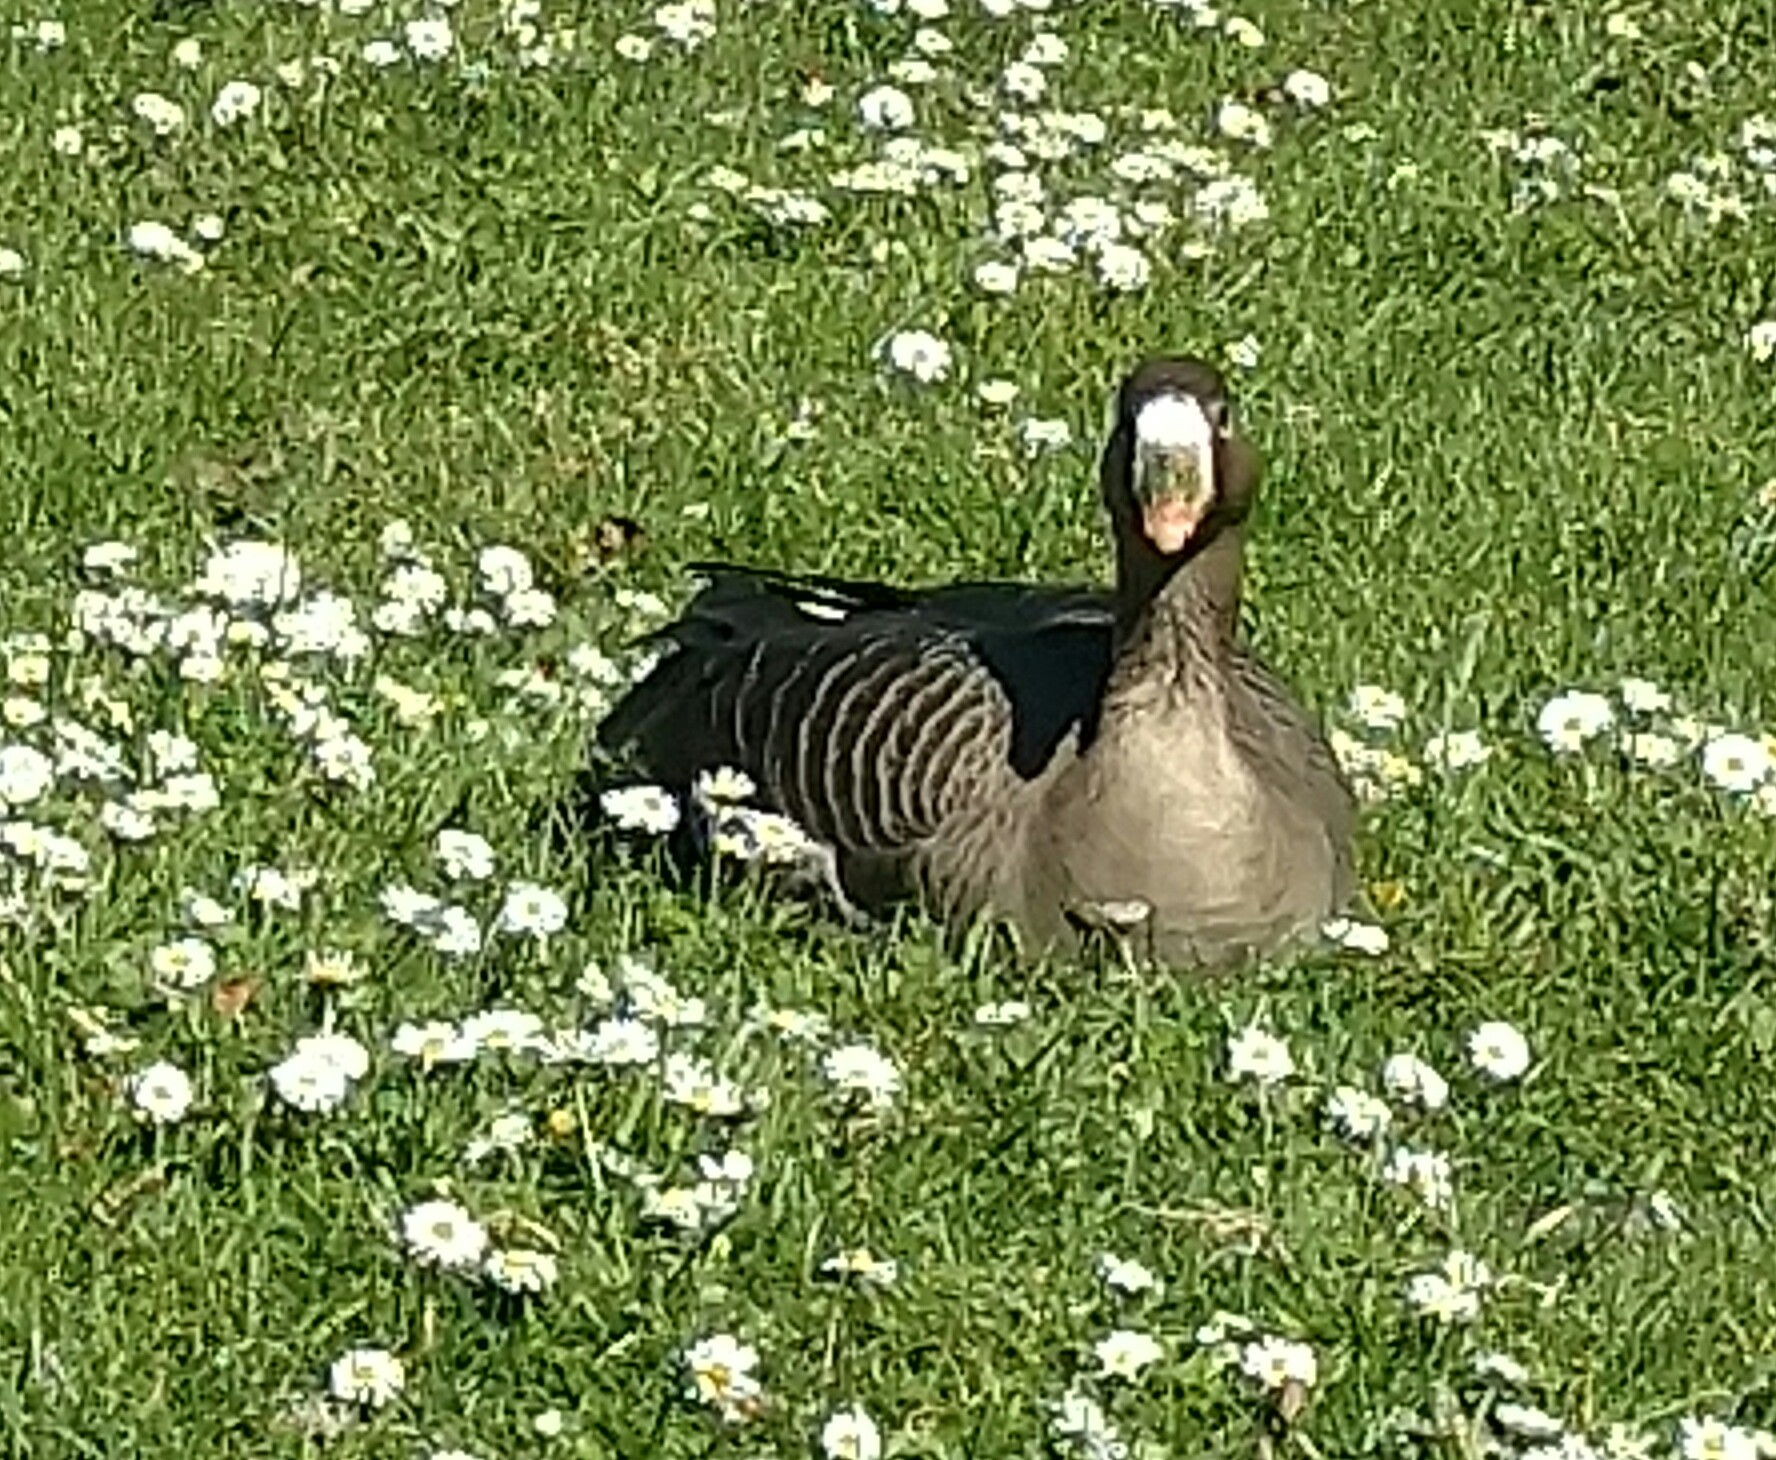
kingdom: Animalia
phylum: Chordata
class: Aves
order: Anseriformes
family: Anatidae
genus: Anser
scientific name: Anser albifrons
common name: Greater white-fronted goose
